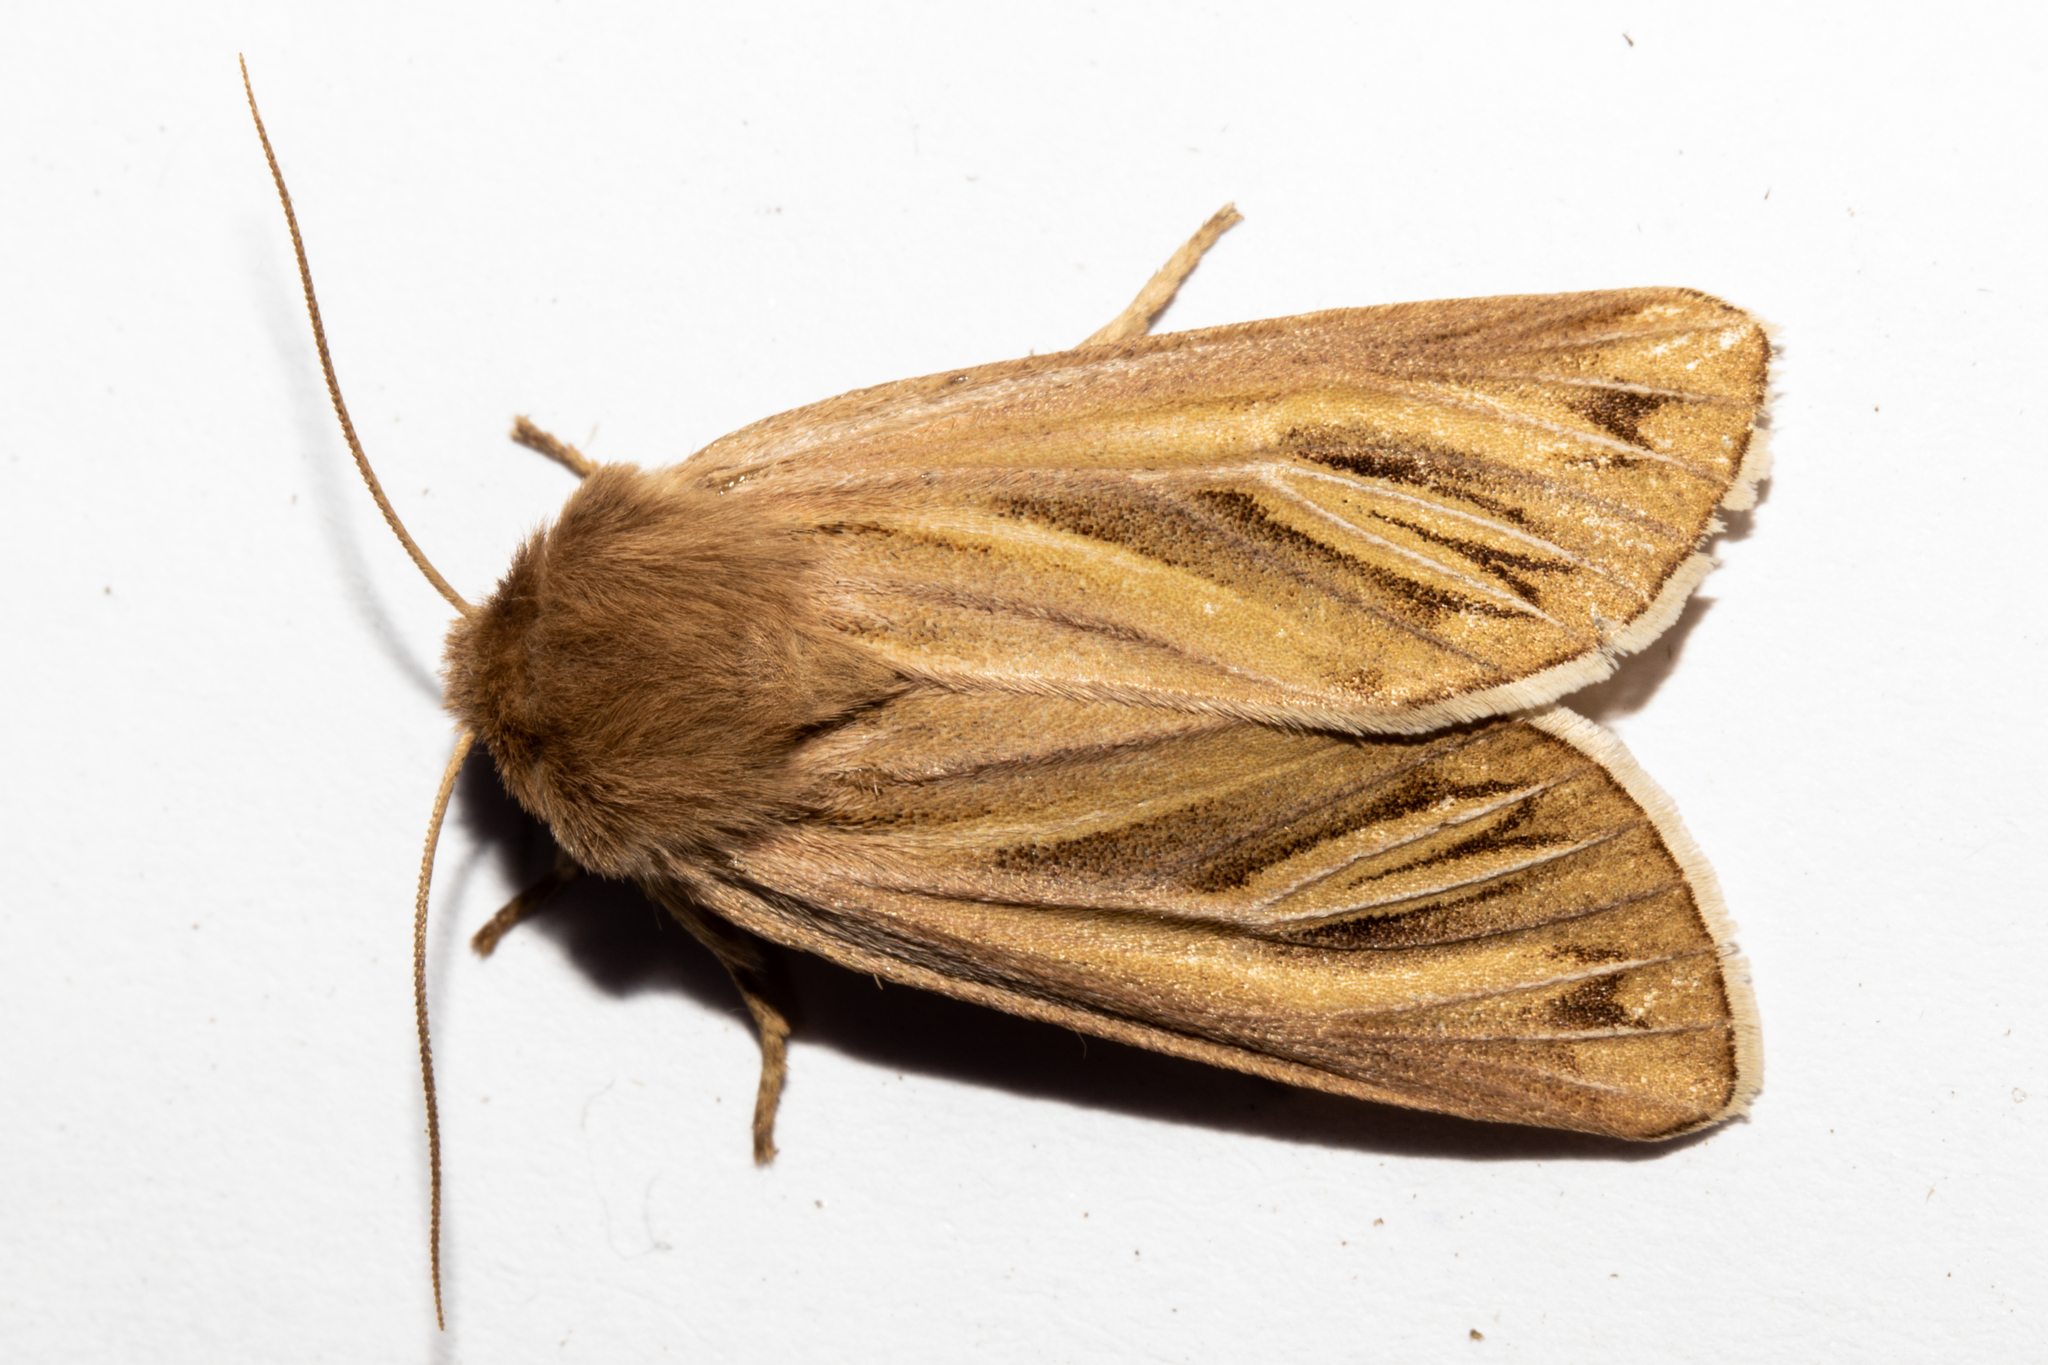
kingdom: Animalia
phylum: Arthropoda
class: Insecta
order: Lepidoptera
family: Noctuidae
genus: Ichneutica
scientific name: Ichneutica caraunias
